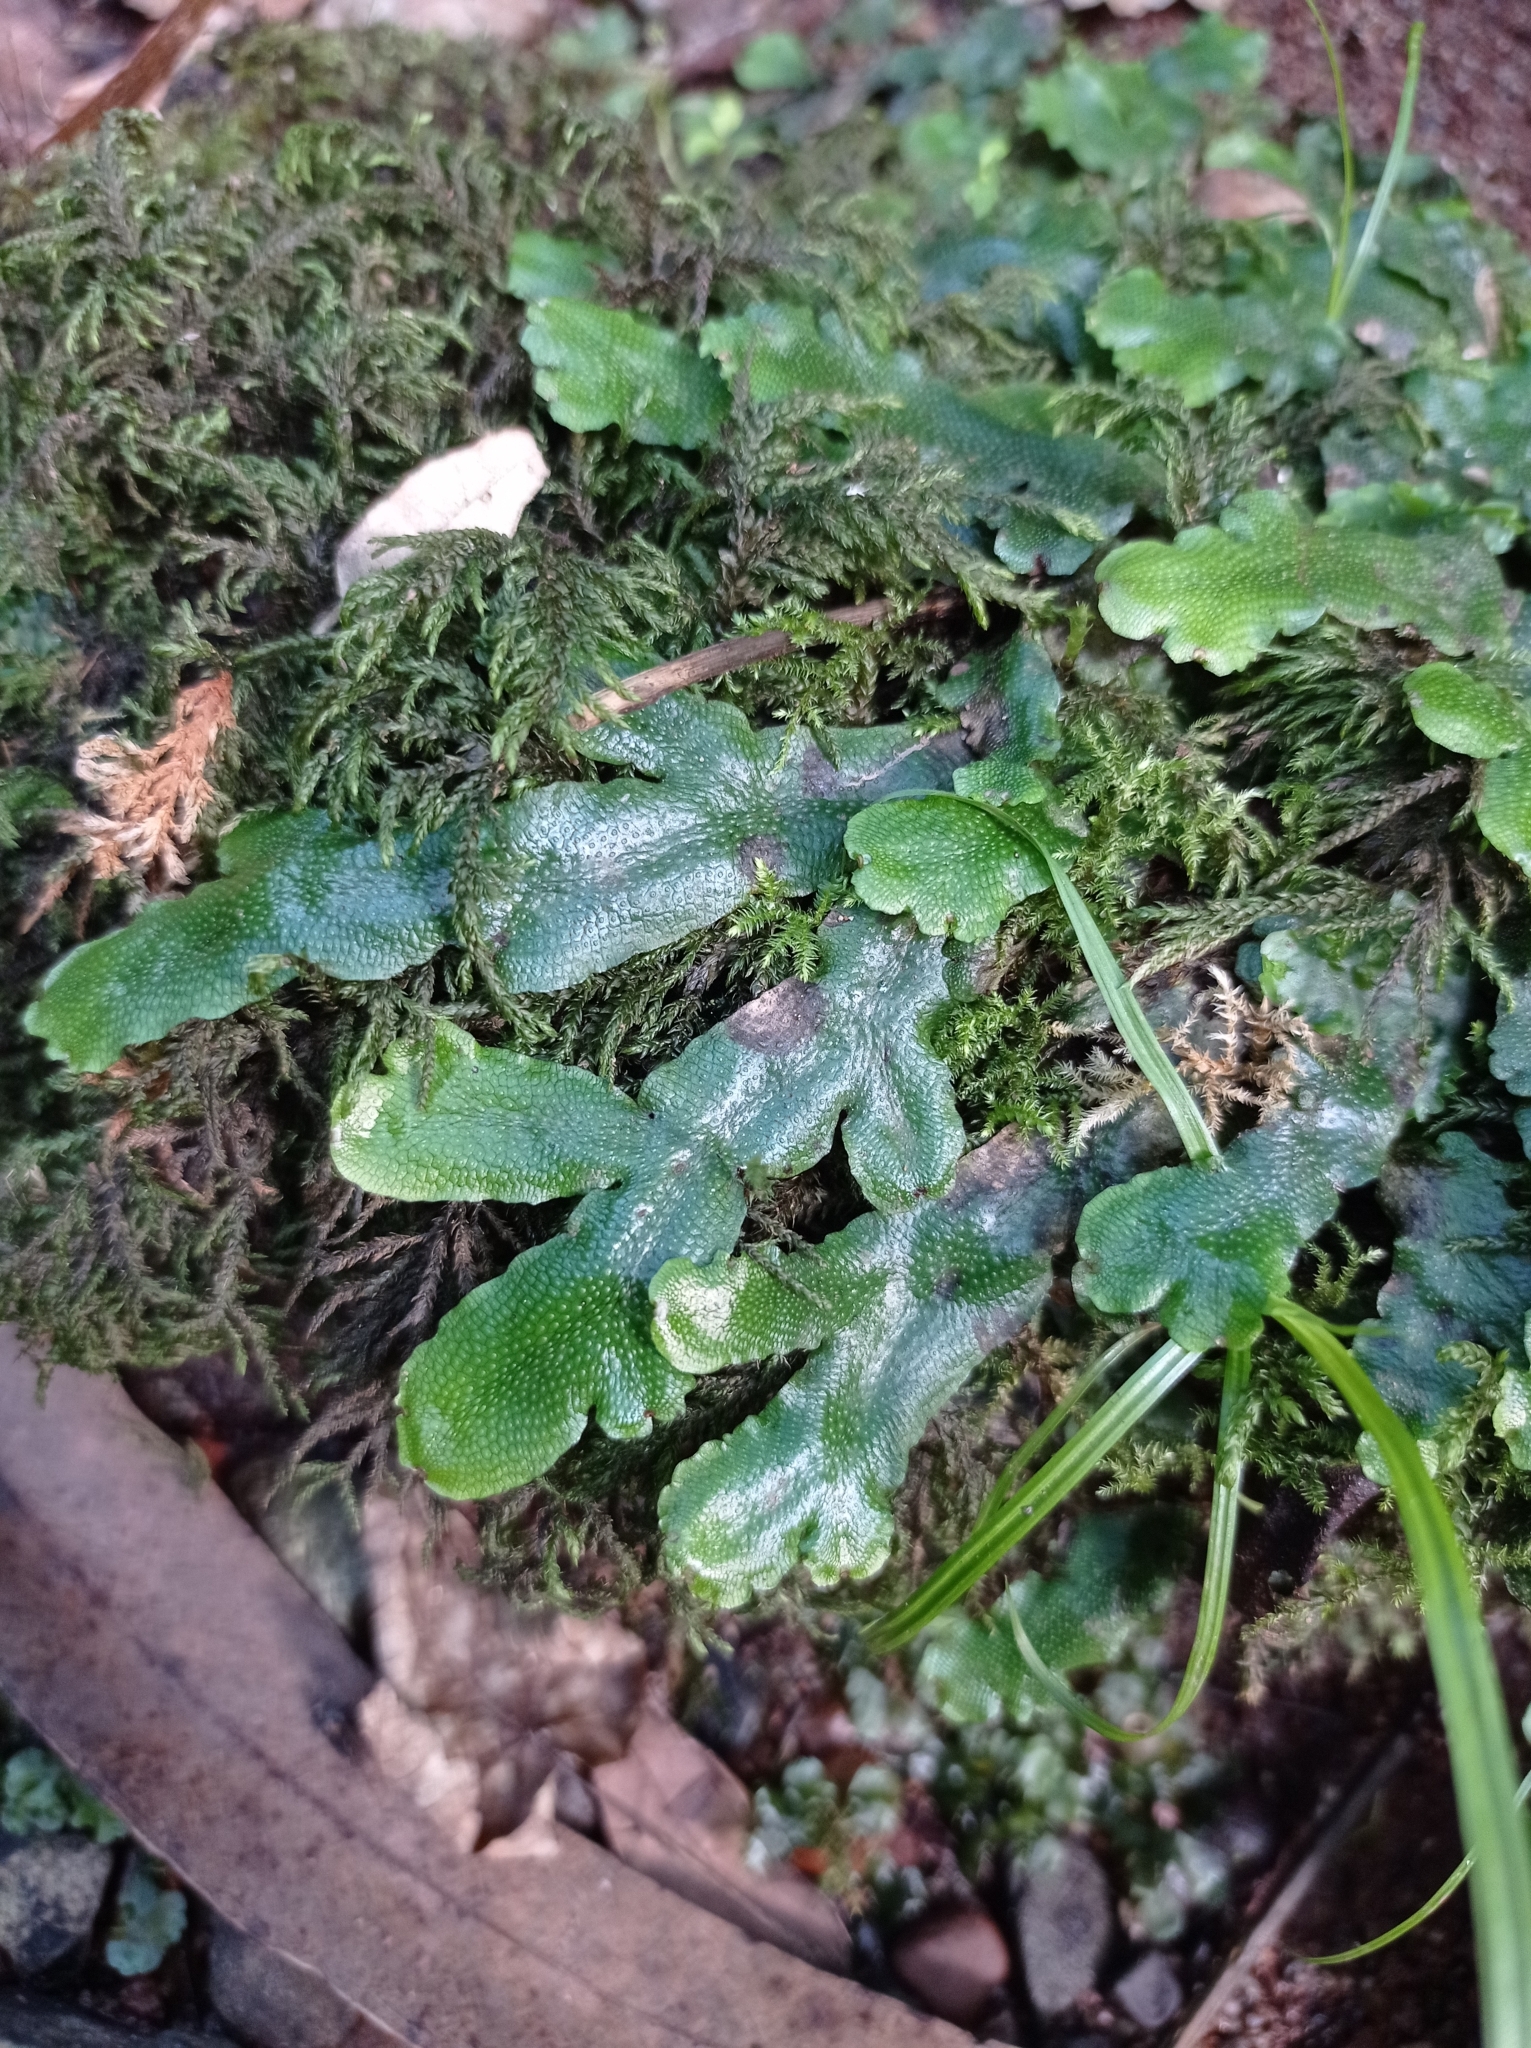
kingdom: Plantae
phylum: Marchantiophyta
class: Marchantiopsida
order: Marchantiales
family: Conocephalaceae
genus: Conocephalum
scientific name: Conocephalum conicum
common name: Great scented liverwort
